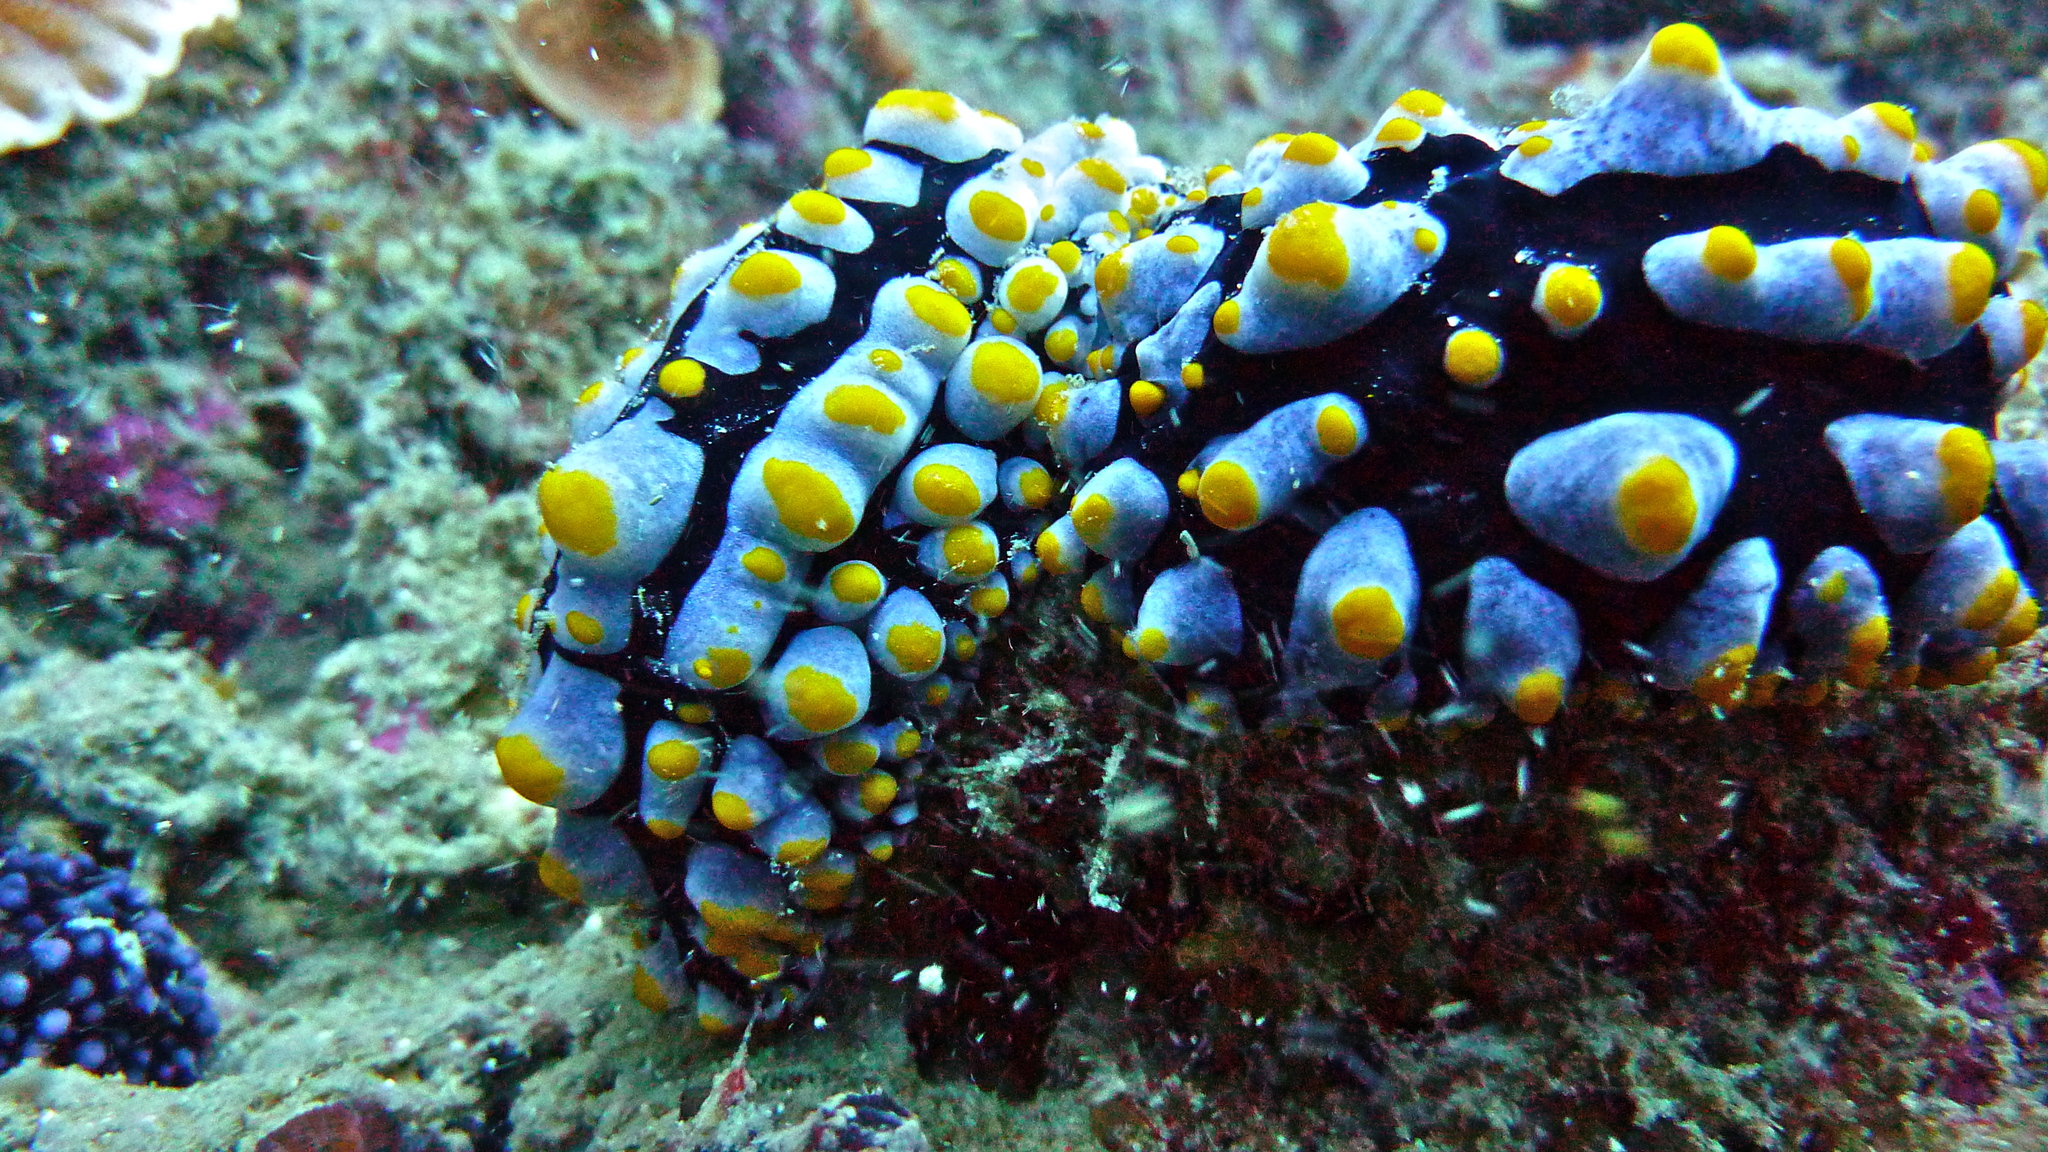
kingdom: Animalia
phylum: Mollusca
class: Gastropoda
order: Nudibranchia
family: Phyllidiidae
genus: Phyllidia
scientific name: Phyllidia varicosa
